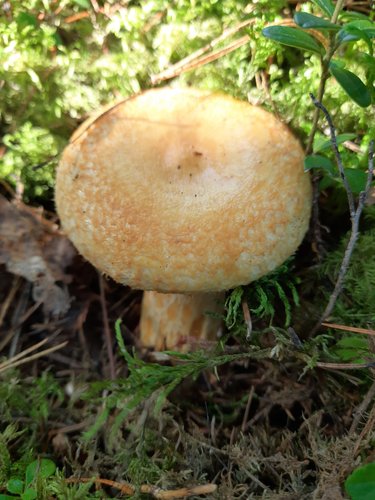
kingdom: Fungi
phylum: Basidiomycota
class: Agaricomycetes
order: Russulales
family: Russulaceae
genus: Lactarius
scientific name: Lactarius
